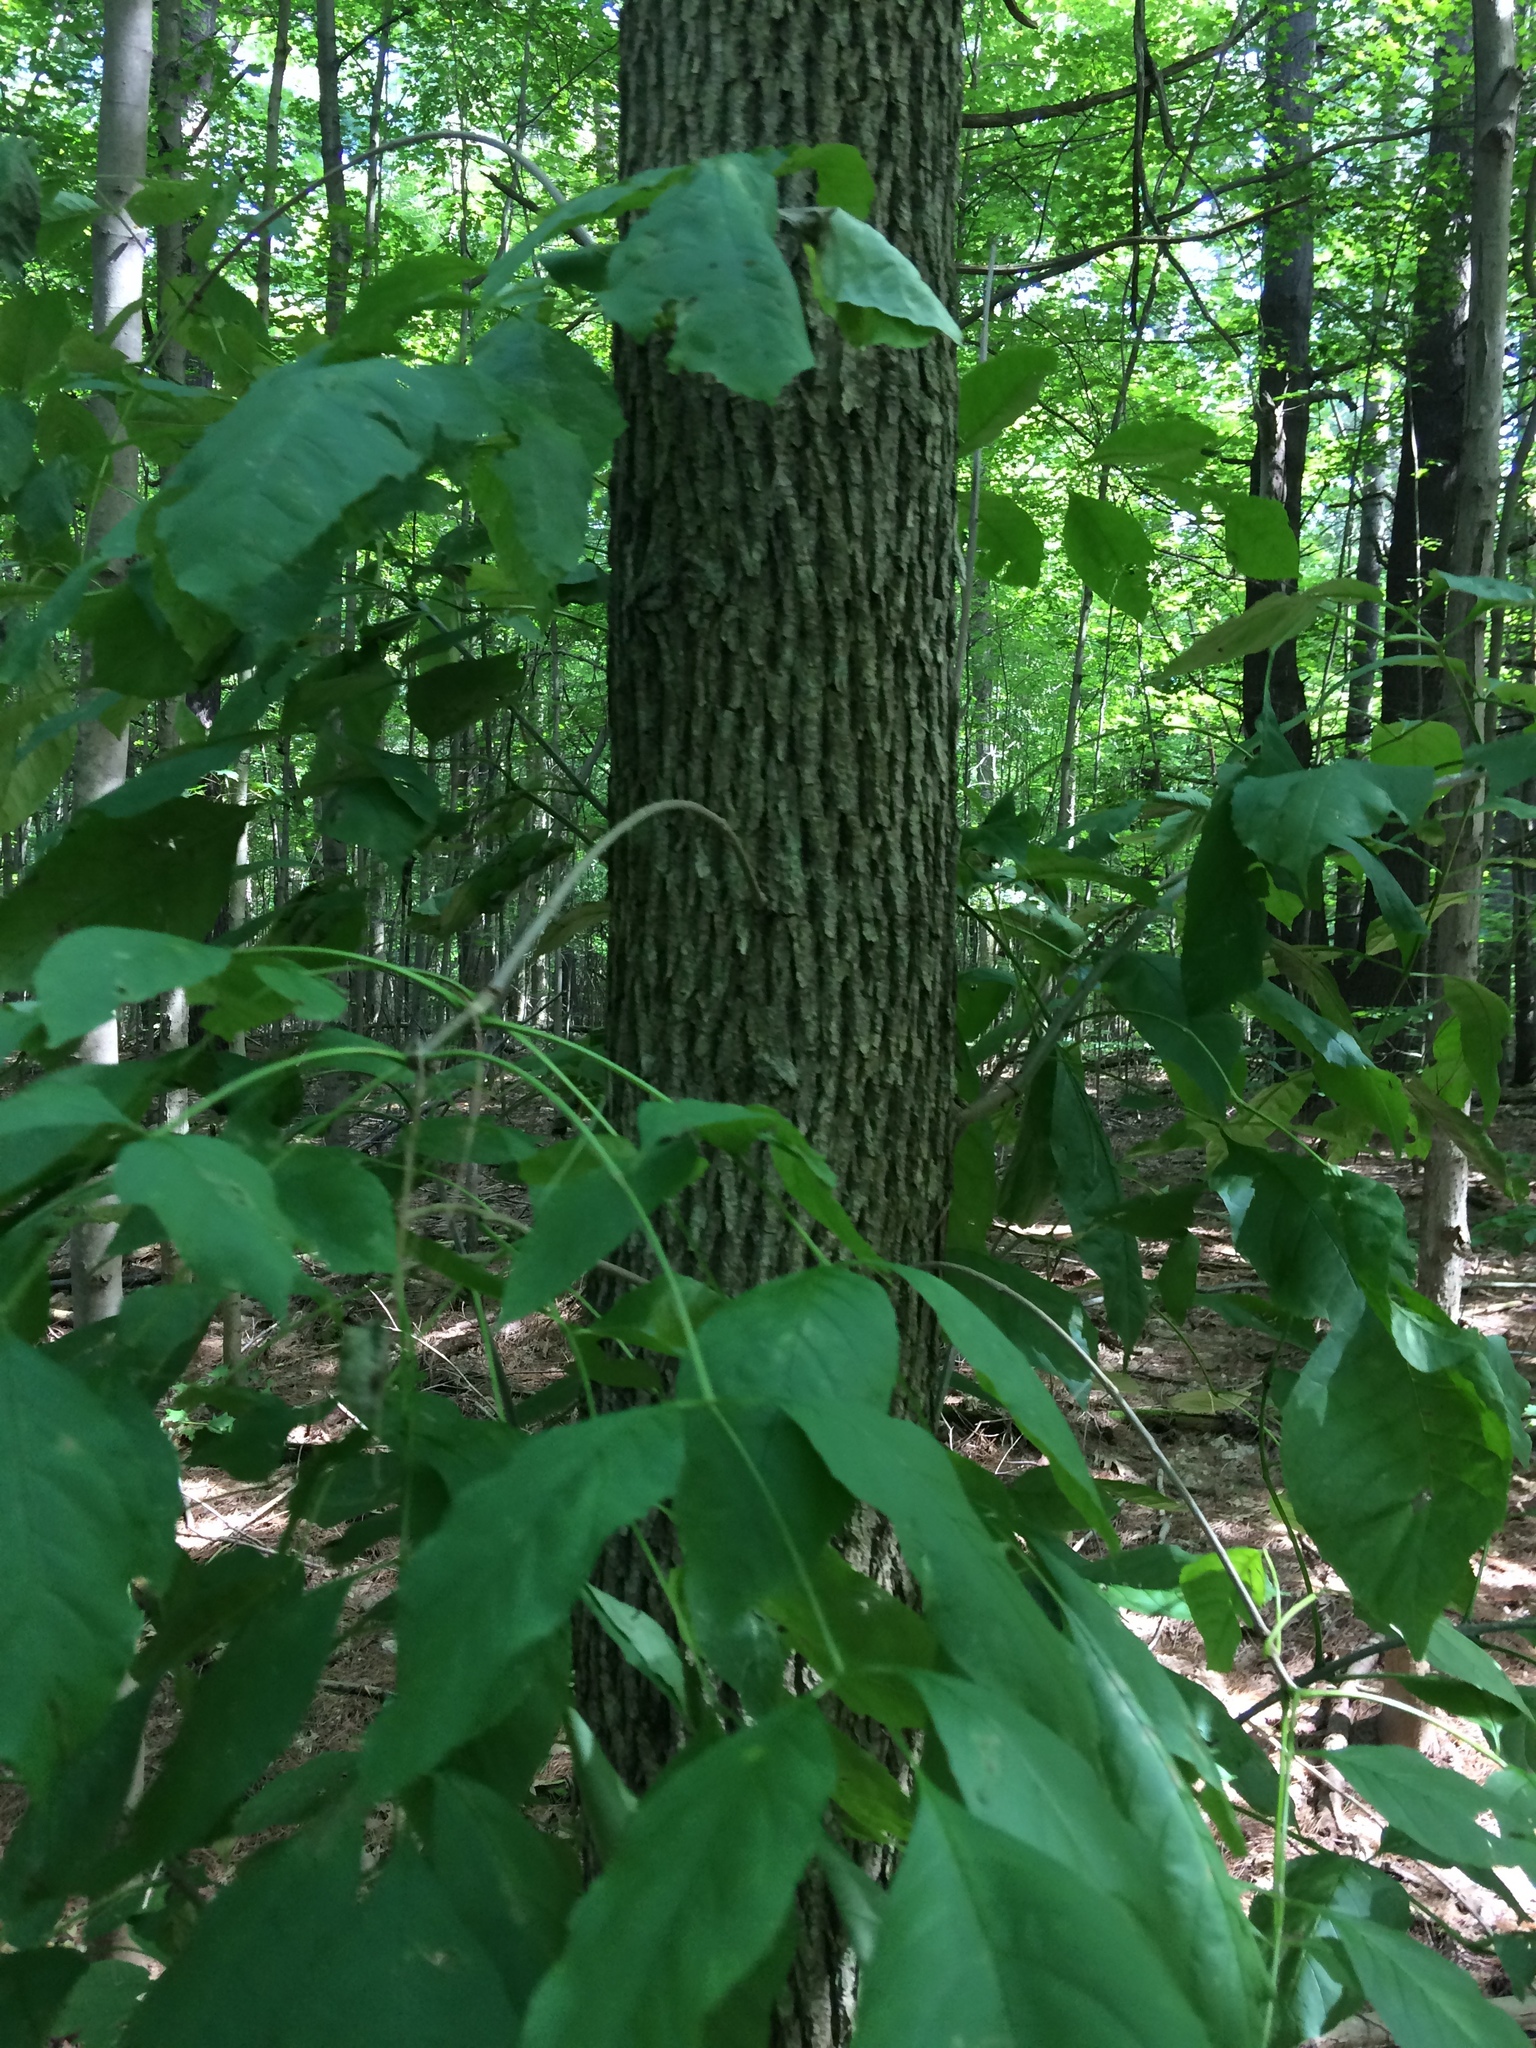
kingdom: Plantae
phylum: Tracheophyta
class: Magnoliopsida
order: Lamiales
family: Oleaceae
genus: Fraxinus
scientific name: Fraxinus americana
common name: White ash
